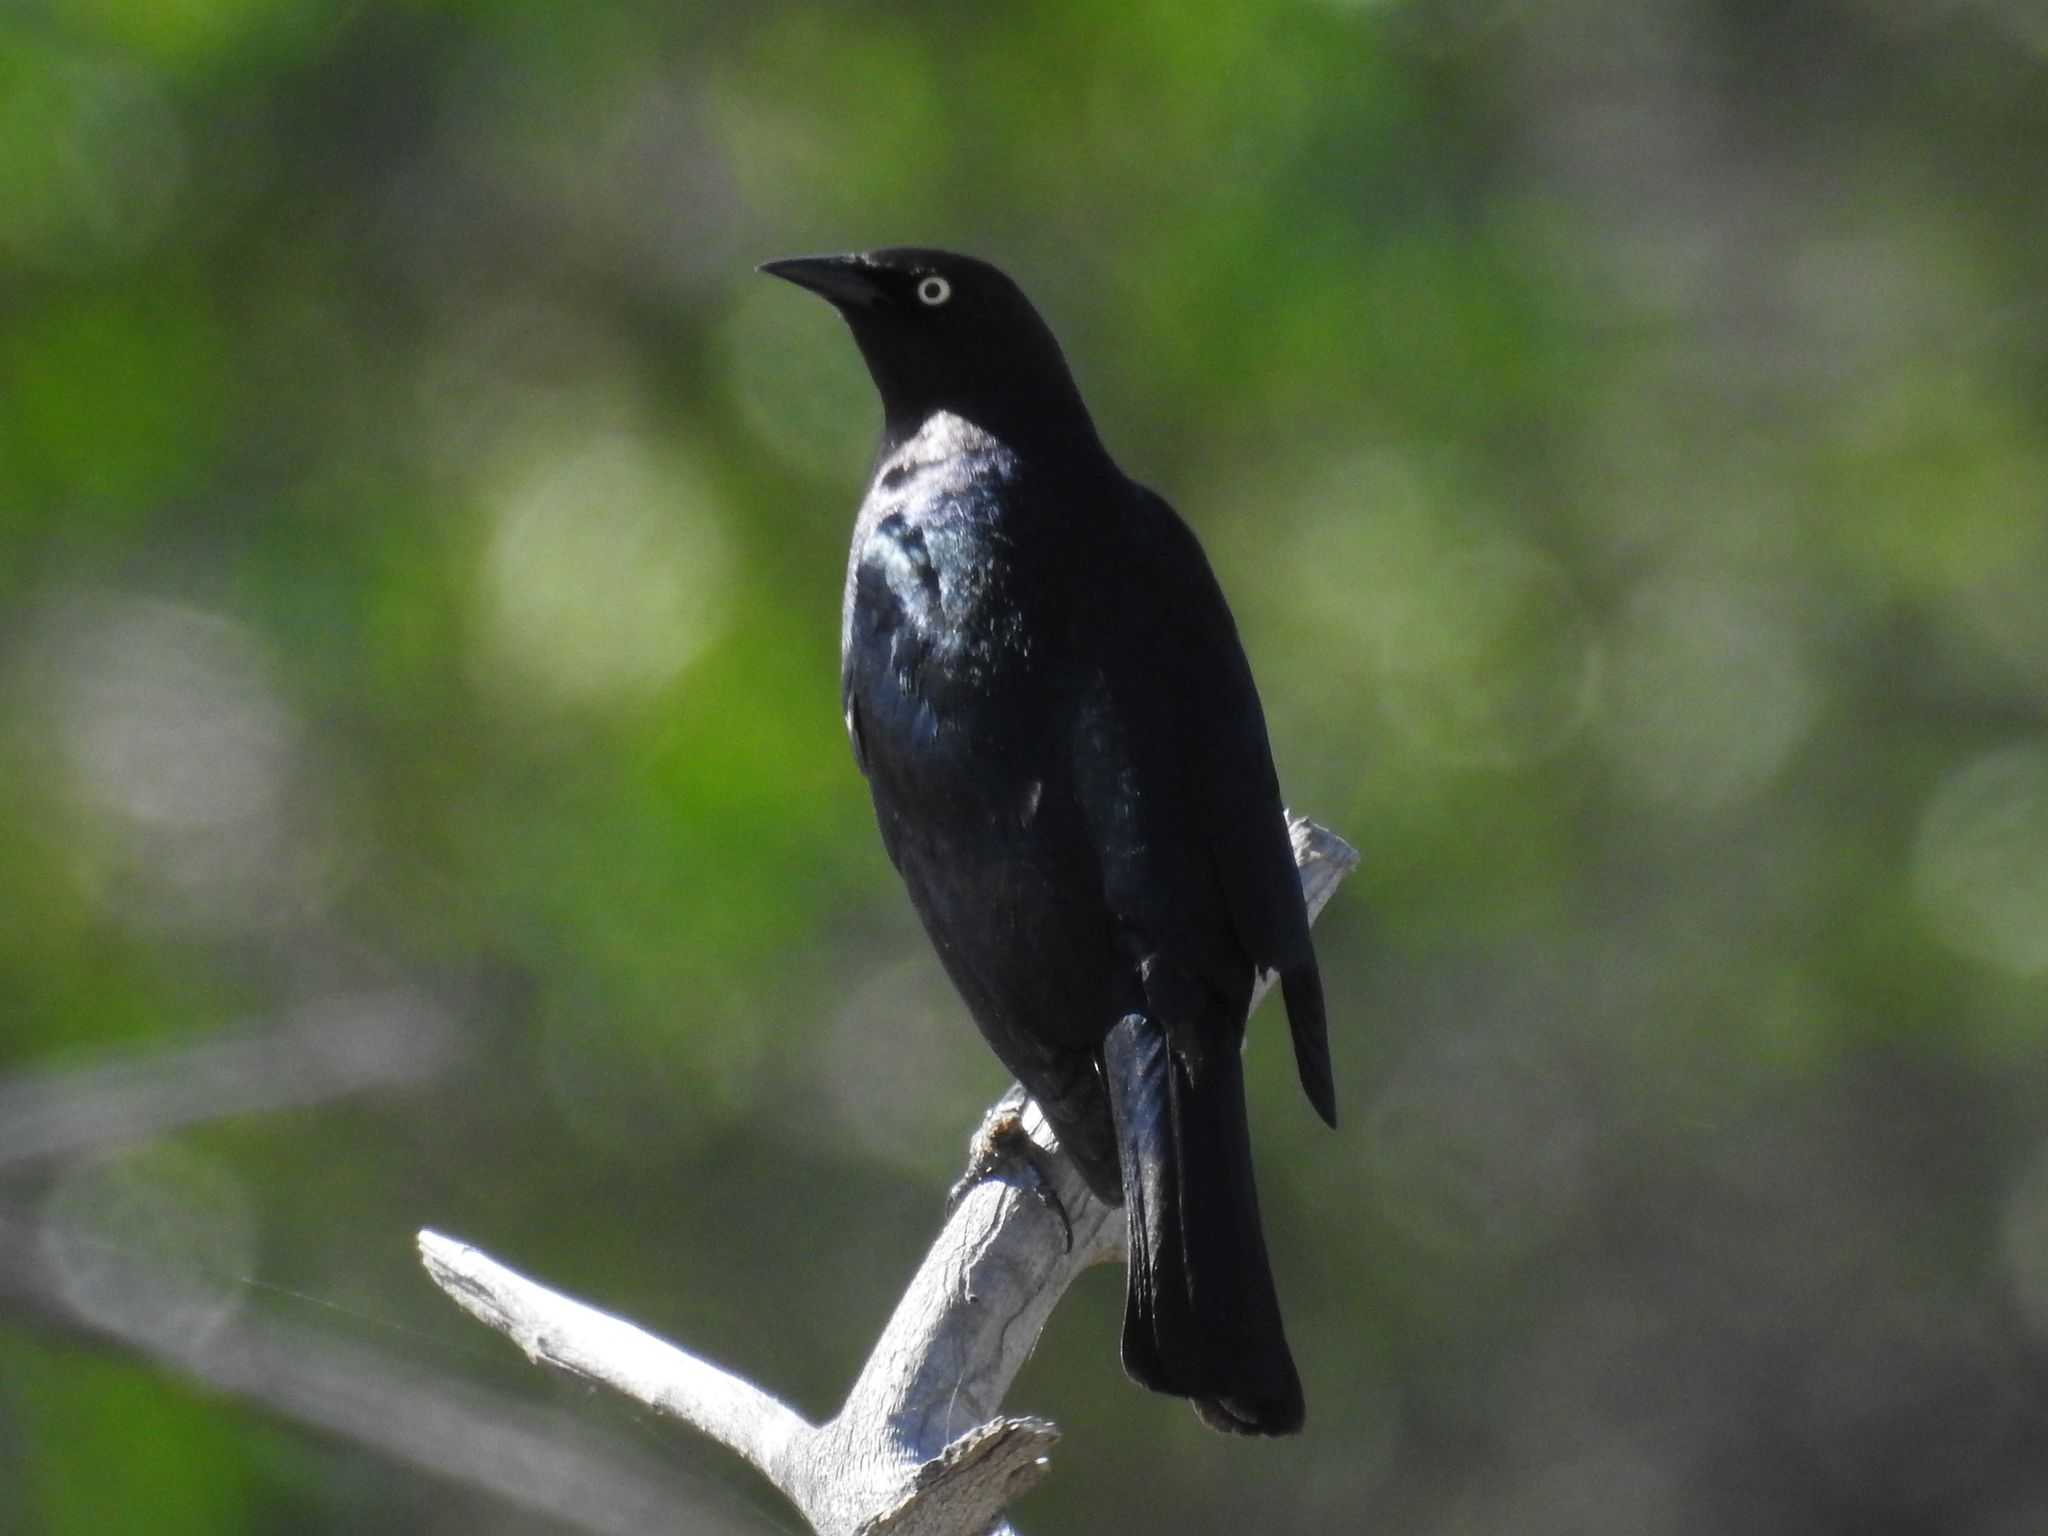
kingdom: Animalia
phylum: Chordata
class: Aves
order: Passeriformes
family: Icteridae
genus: Euphagus
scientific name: Euphagus cyanocephalus
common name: Brewer's blackbird
